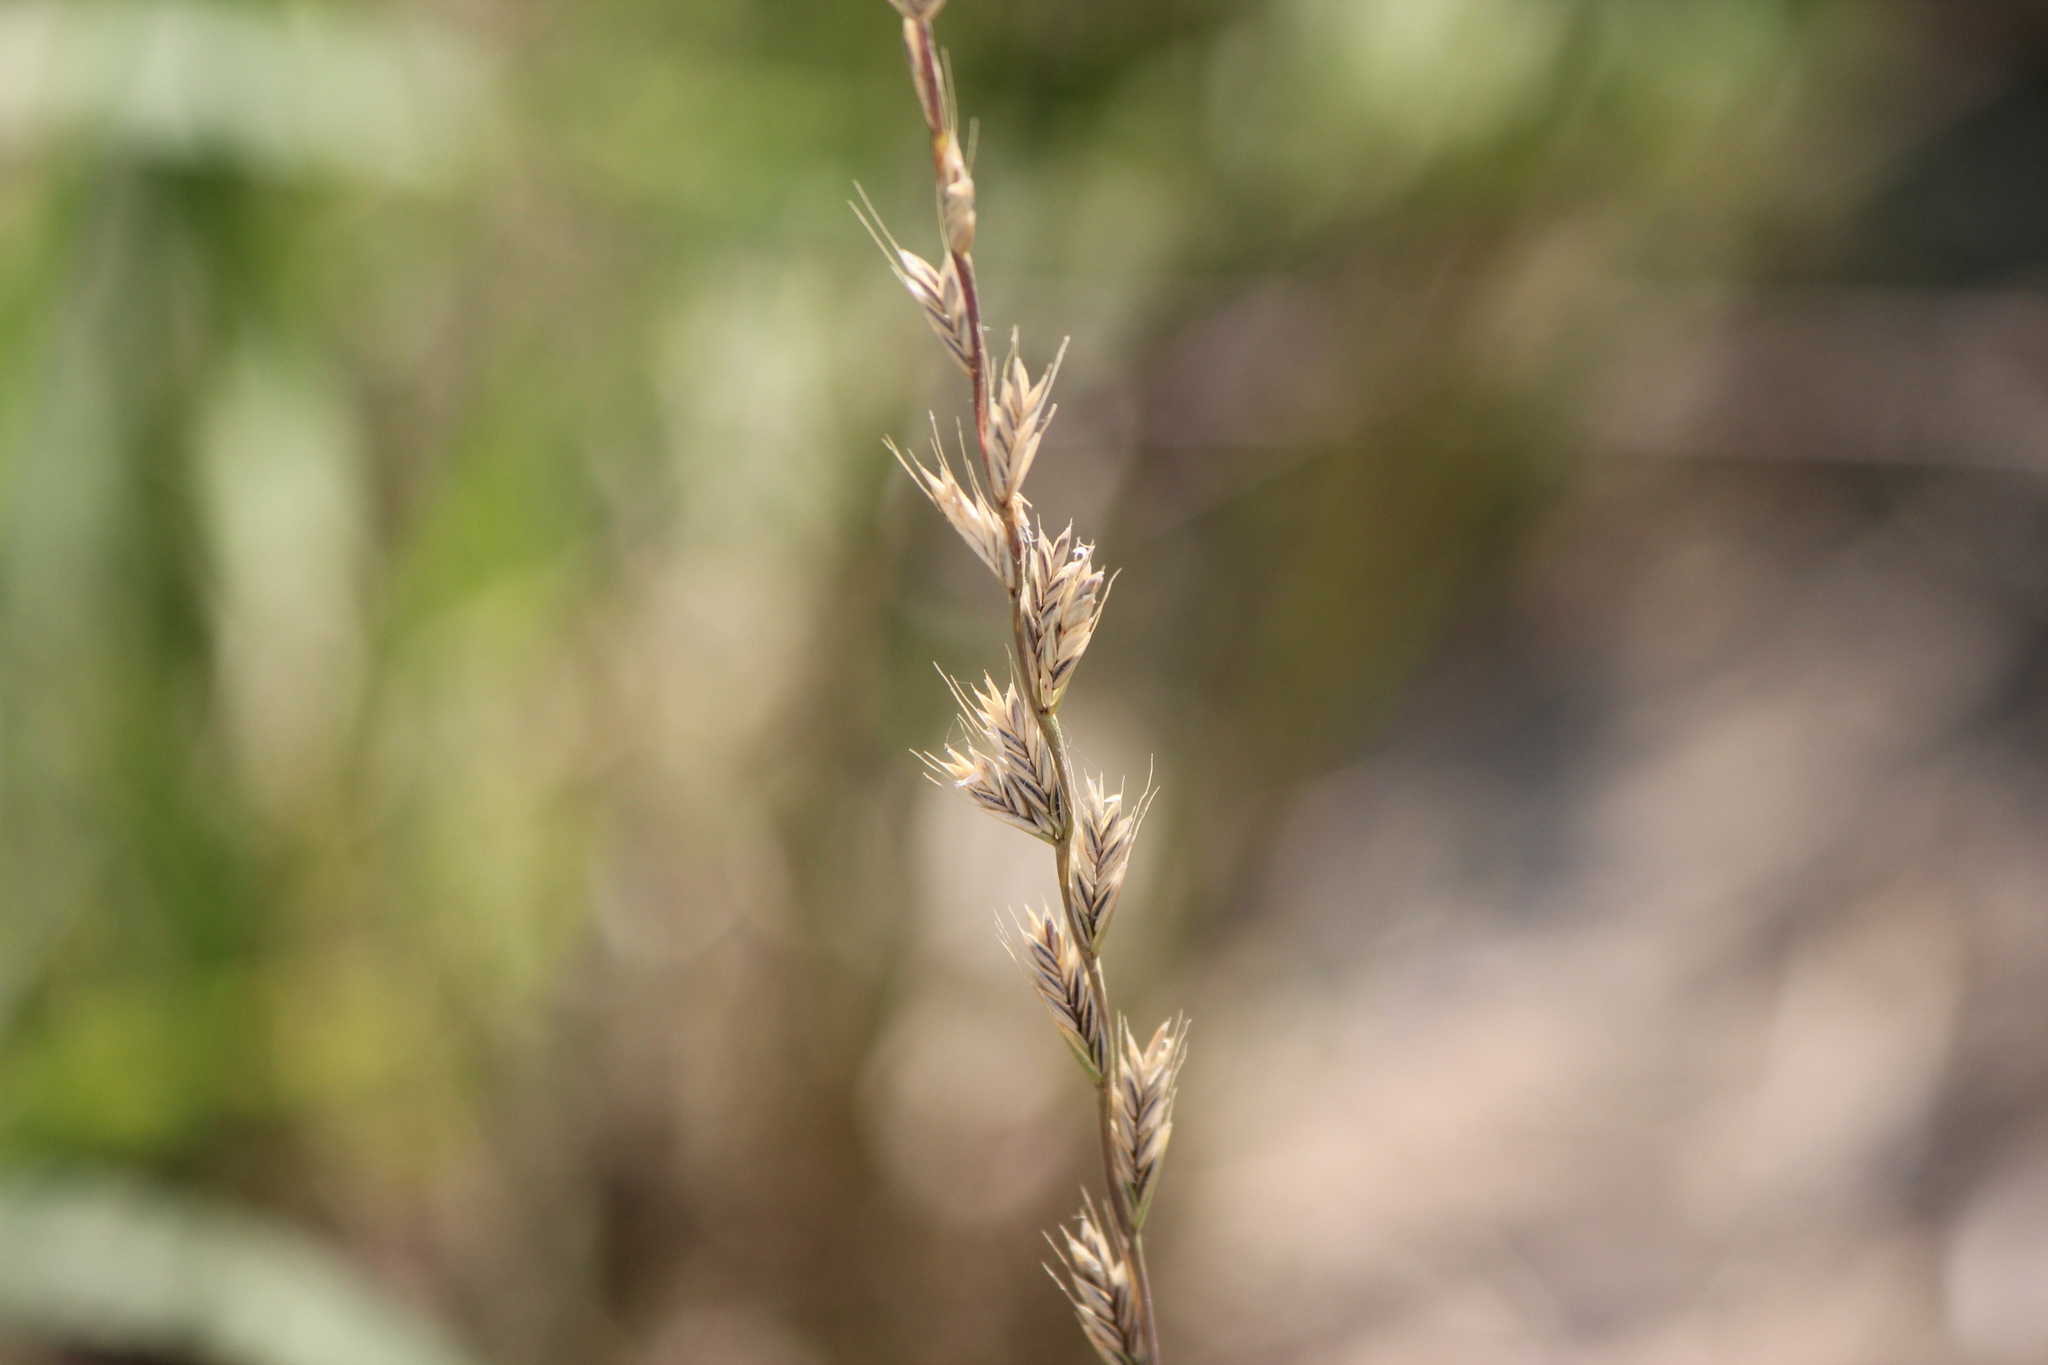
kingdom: Plantae
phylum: Tracheophyta
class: Liliopsida
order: Poales
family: Poaceae
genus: Lolium
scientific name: Lolium multiflorum
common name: Annual ryegrass
